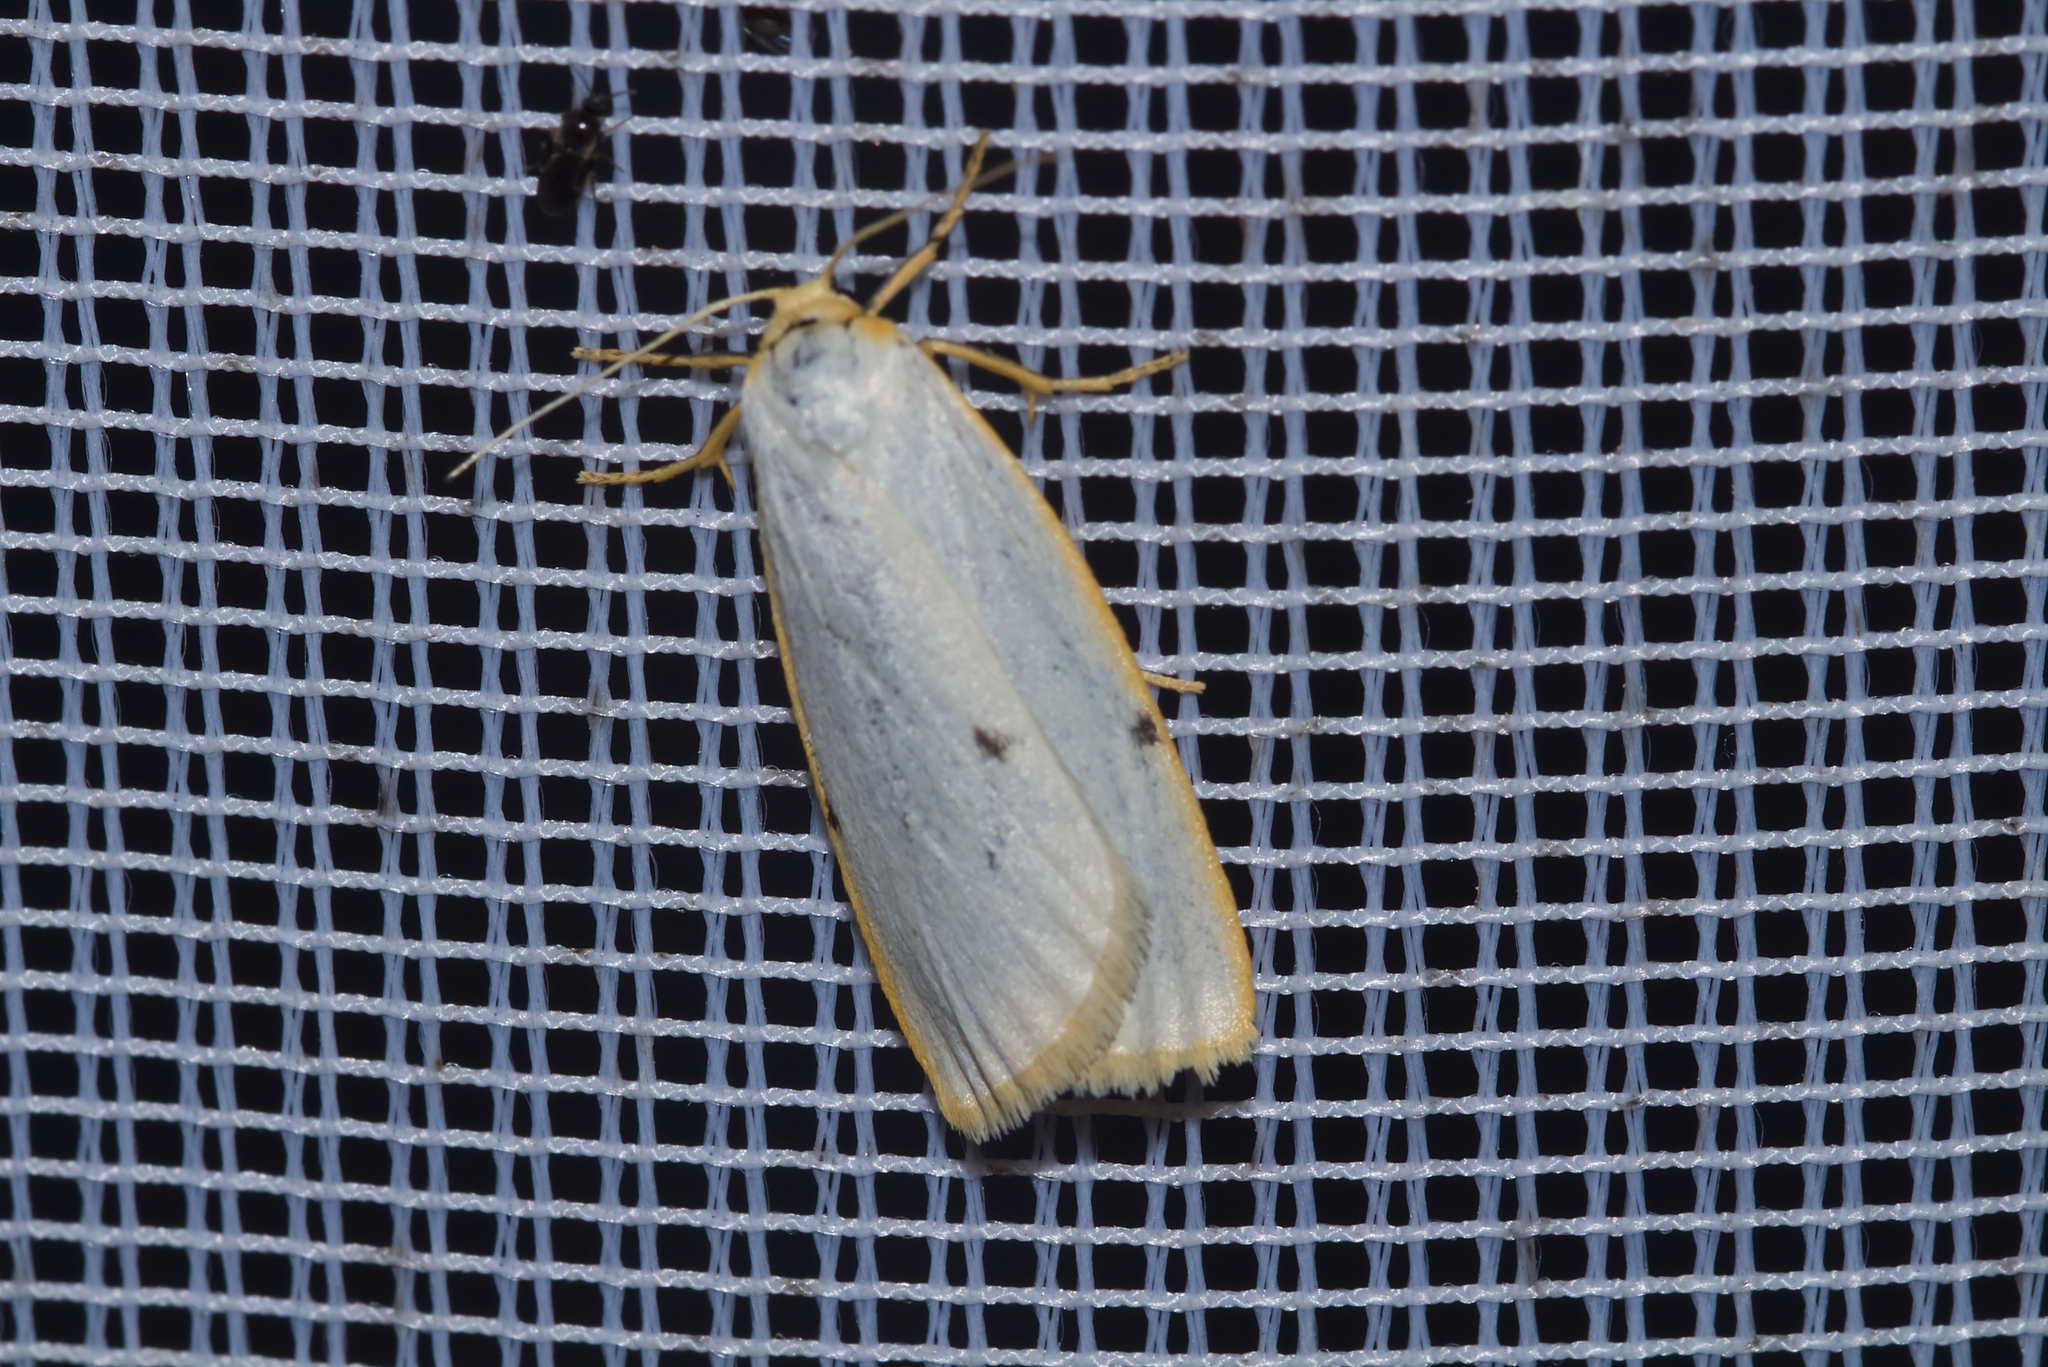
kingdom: Animalia
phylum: Arthropoda
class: Insecta
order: Lepidoptera
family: Erebidae
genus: Cybosia
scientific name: Cybosia mesomella
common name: Four-dotted footman
